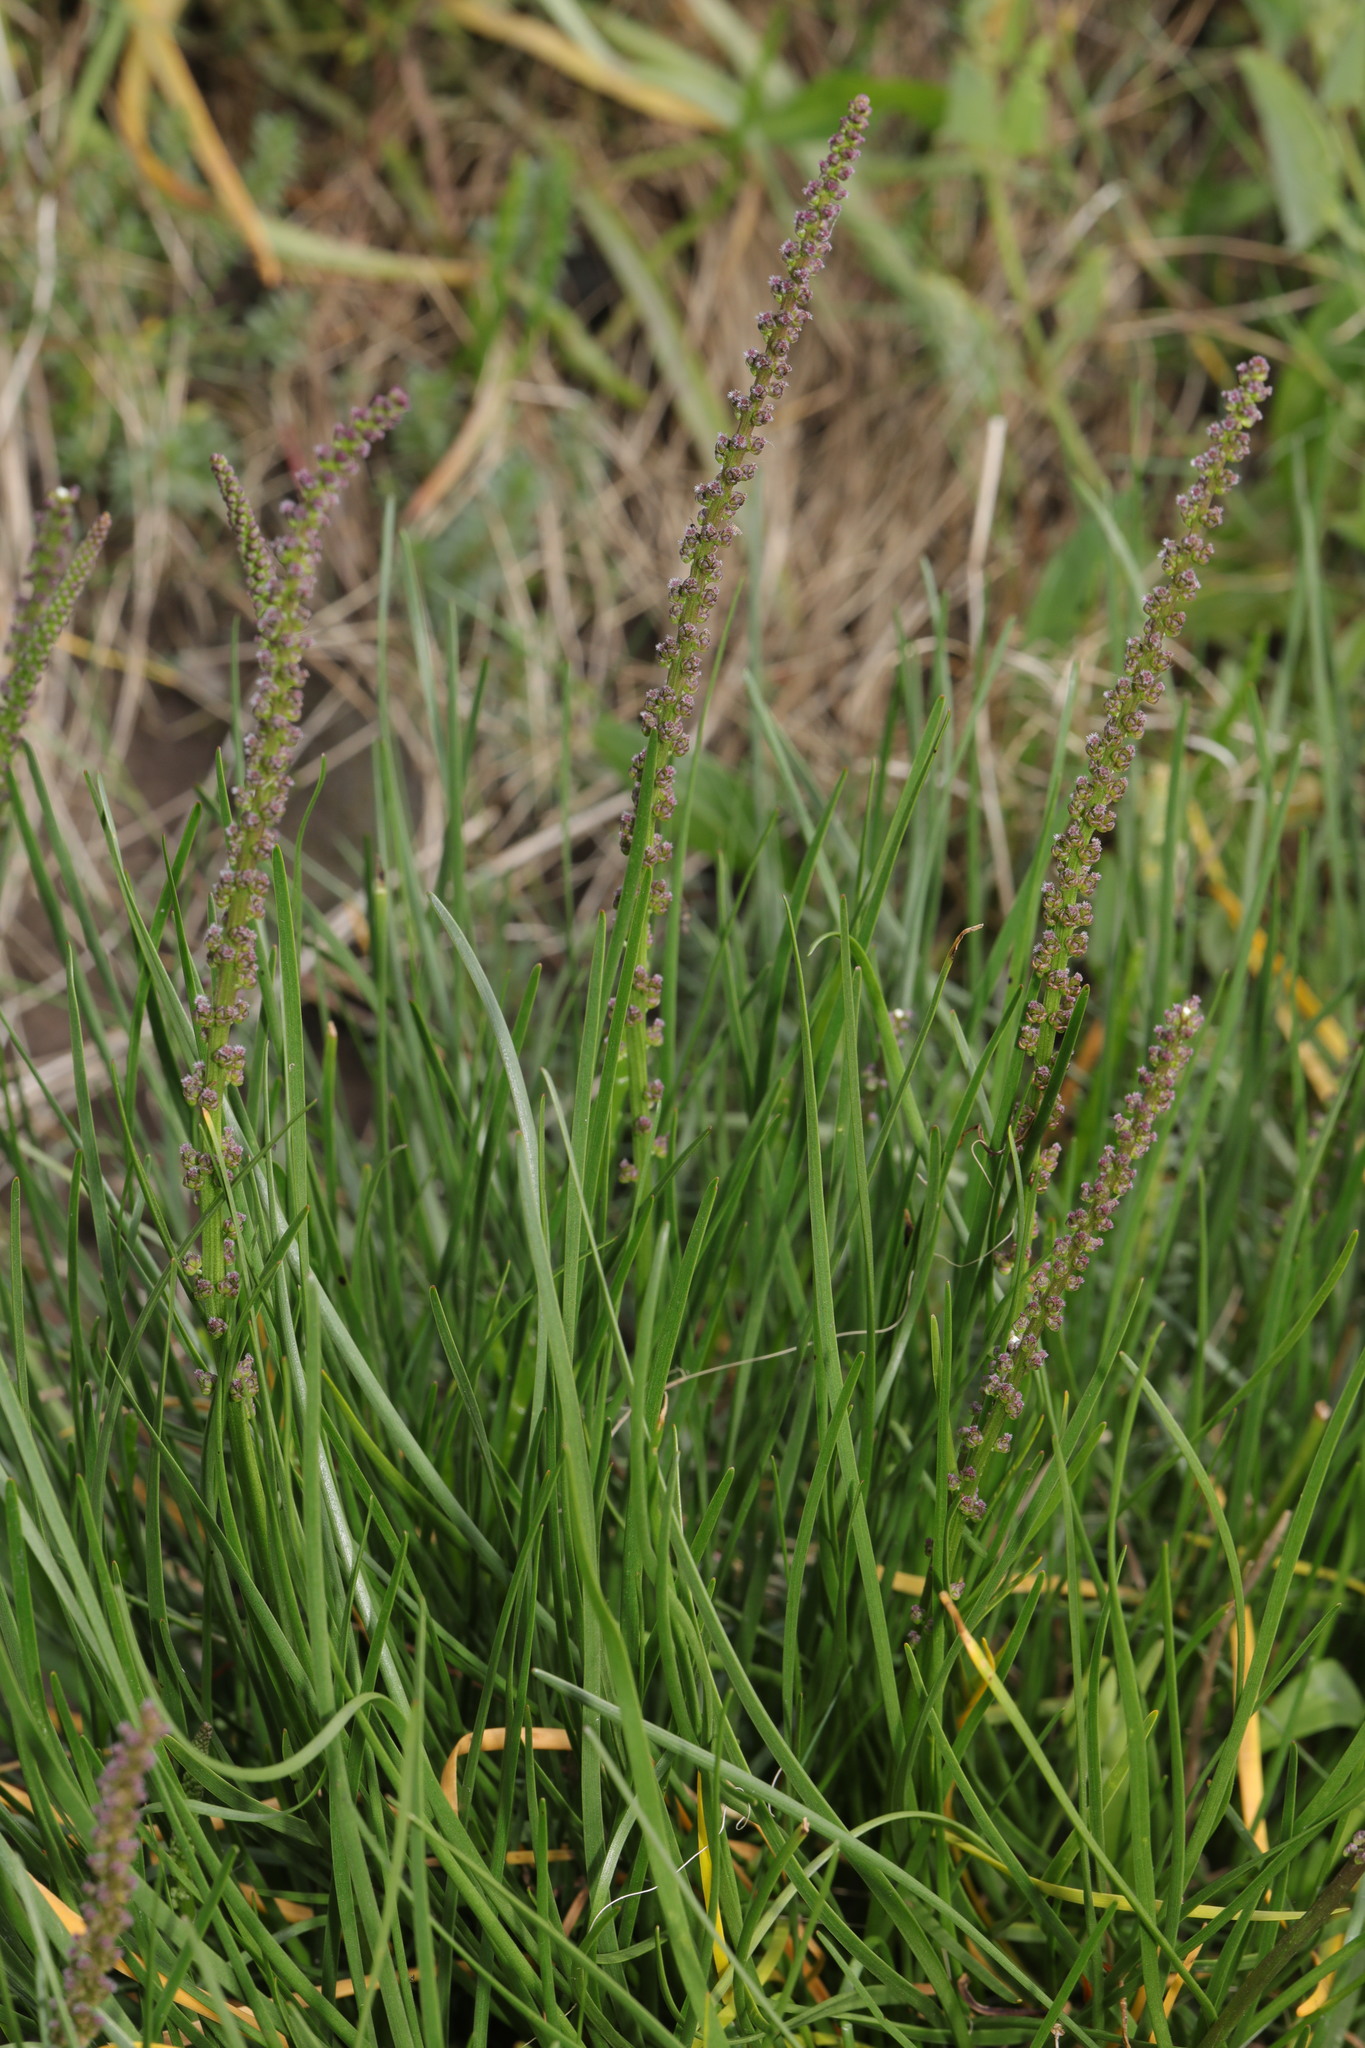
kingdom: Plantae
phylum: Tracheophyta
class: Liliopsida
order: Alismatales
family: Juncaginaceae
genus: Triglochin
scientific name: Triglochin maritima
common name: Sea arrowgrass
